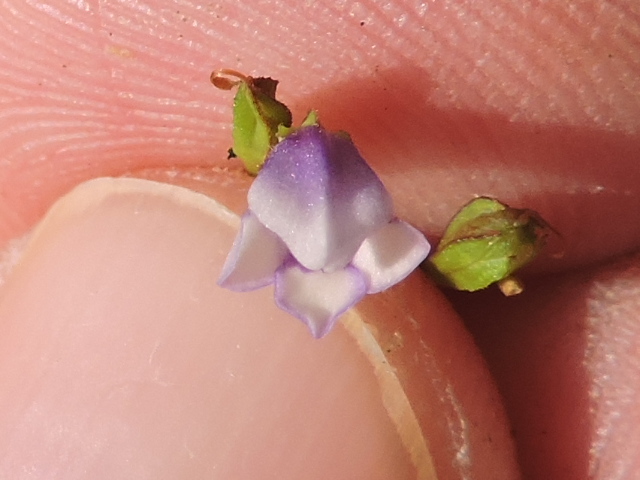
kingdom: Plantae
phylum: Tracheophyta
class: Magnoliopsida
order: Lamiales
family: Linderniaceae
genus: Torenia
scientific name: Torenia crustacea
